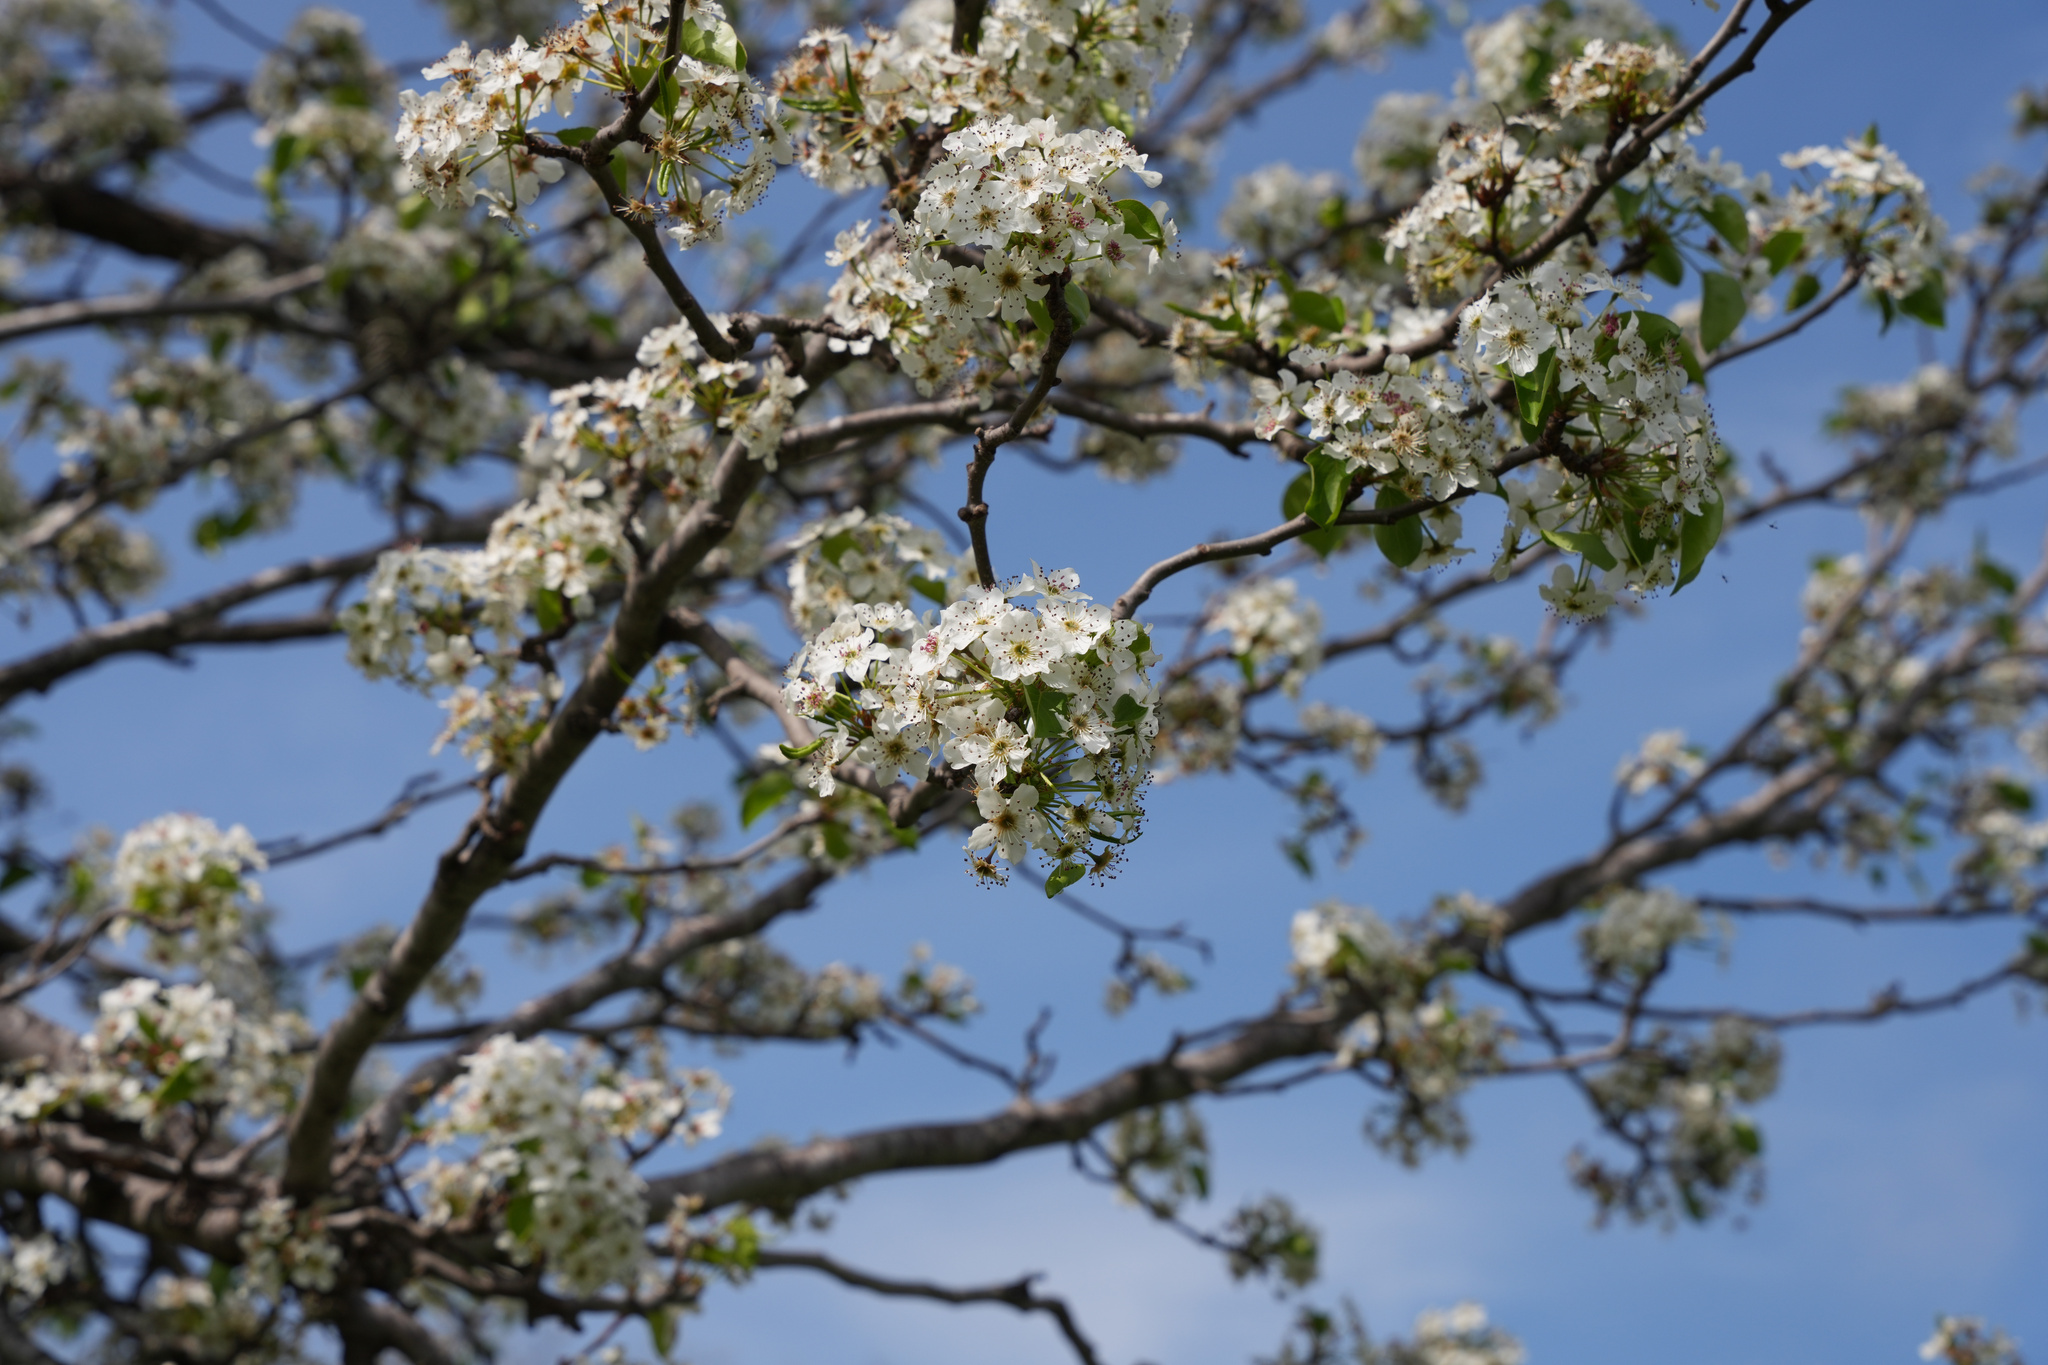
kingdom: Plantae
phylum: Tracheophyta
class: Magnoliopsida
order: Rosales
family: Rosaceae
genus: Pyrus
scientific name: Pyrus calleryana
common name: Callery pear
